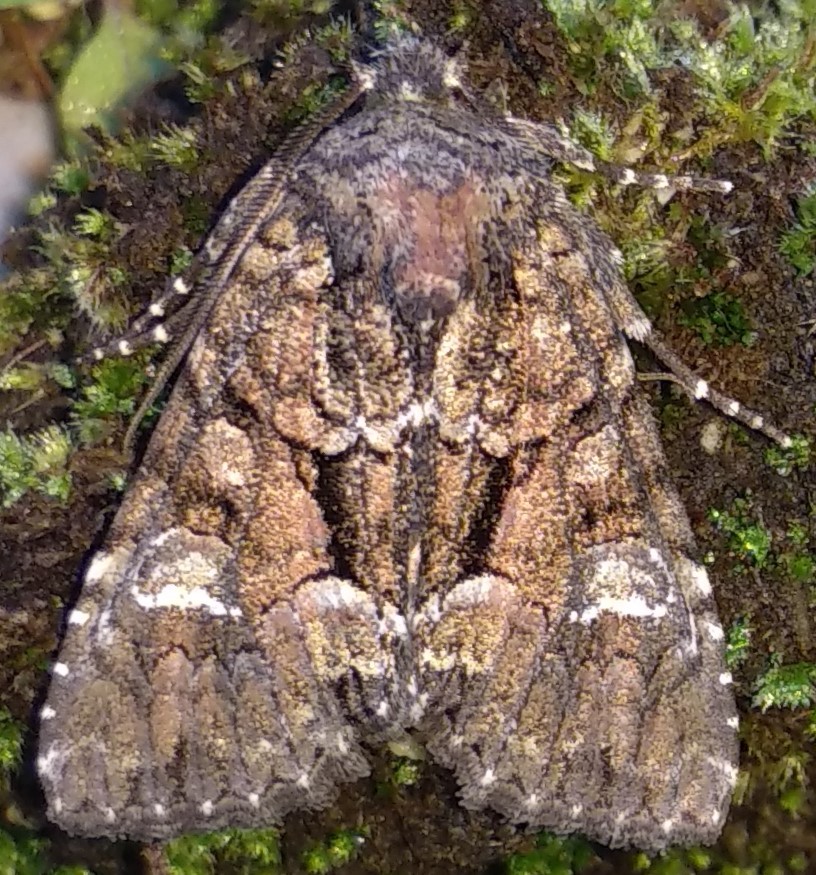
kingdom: Animalia
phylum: Arthropoda
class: Insecta
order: Lepidoptera
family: Noctuidae
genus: Fishia
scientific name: Fishia illocata
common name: Wandering brocade moth
